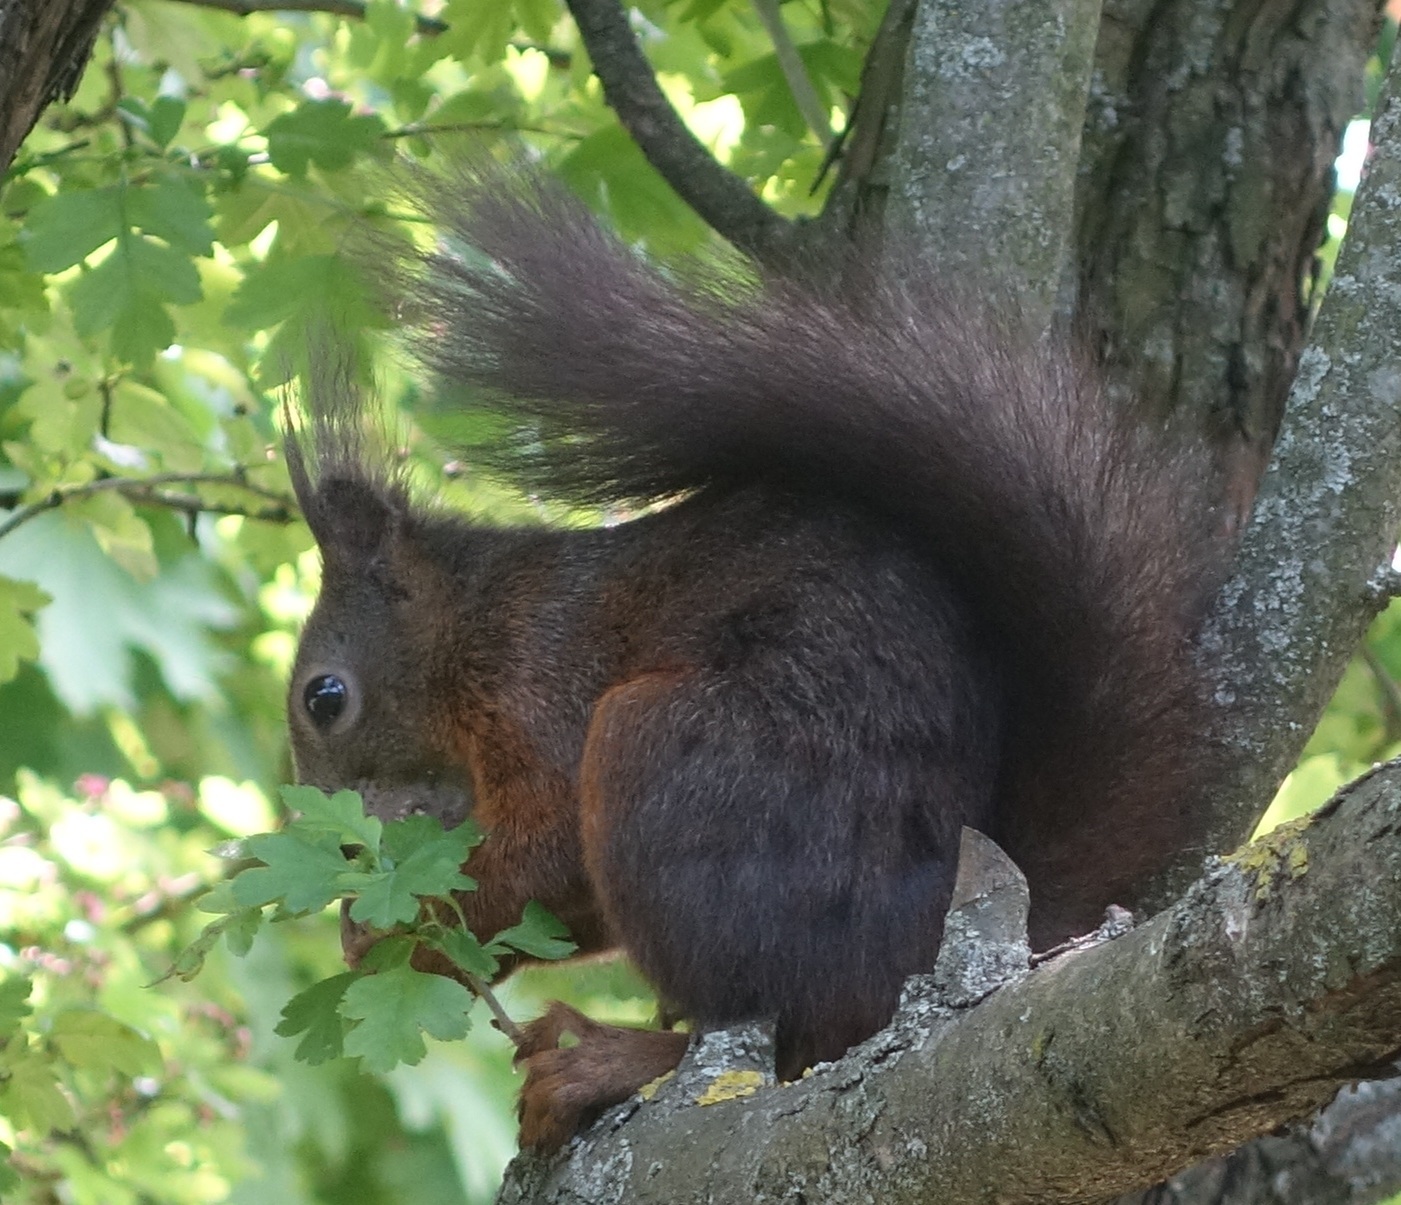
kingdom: Animalia
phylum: Chordata
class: Mammalia
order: Rodentia
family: Sciuridae
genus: Sciurus
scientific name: Sciurus vulgaris
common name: Eurasian red squirrel
